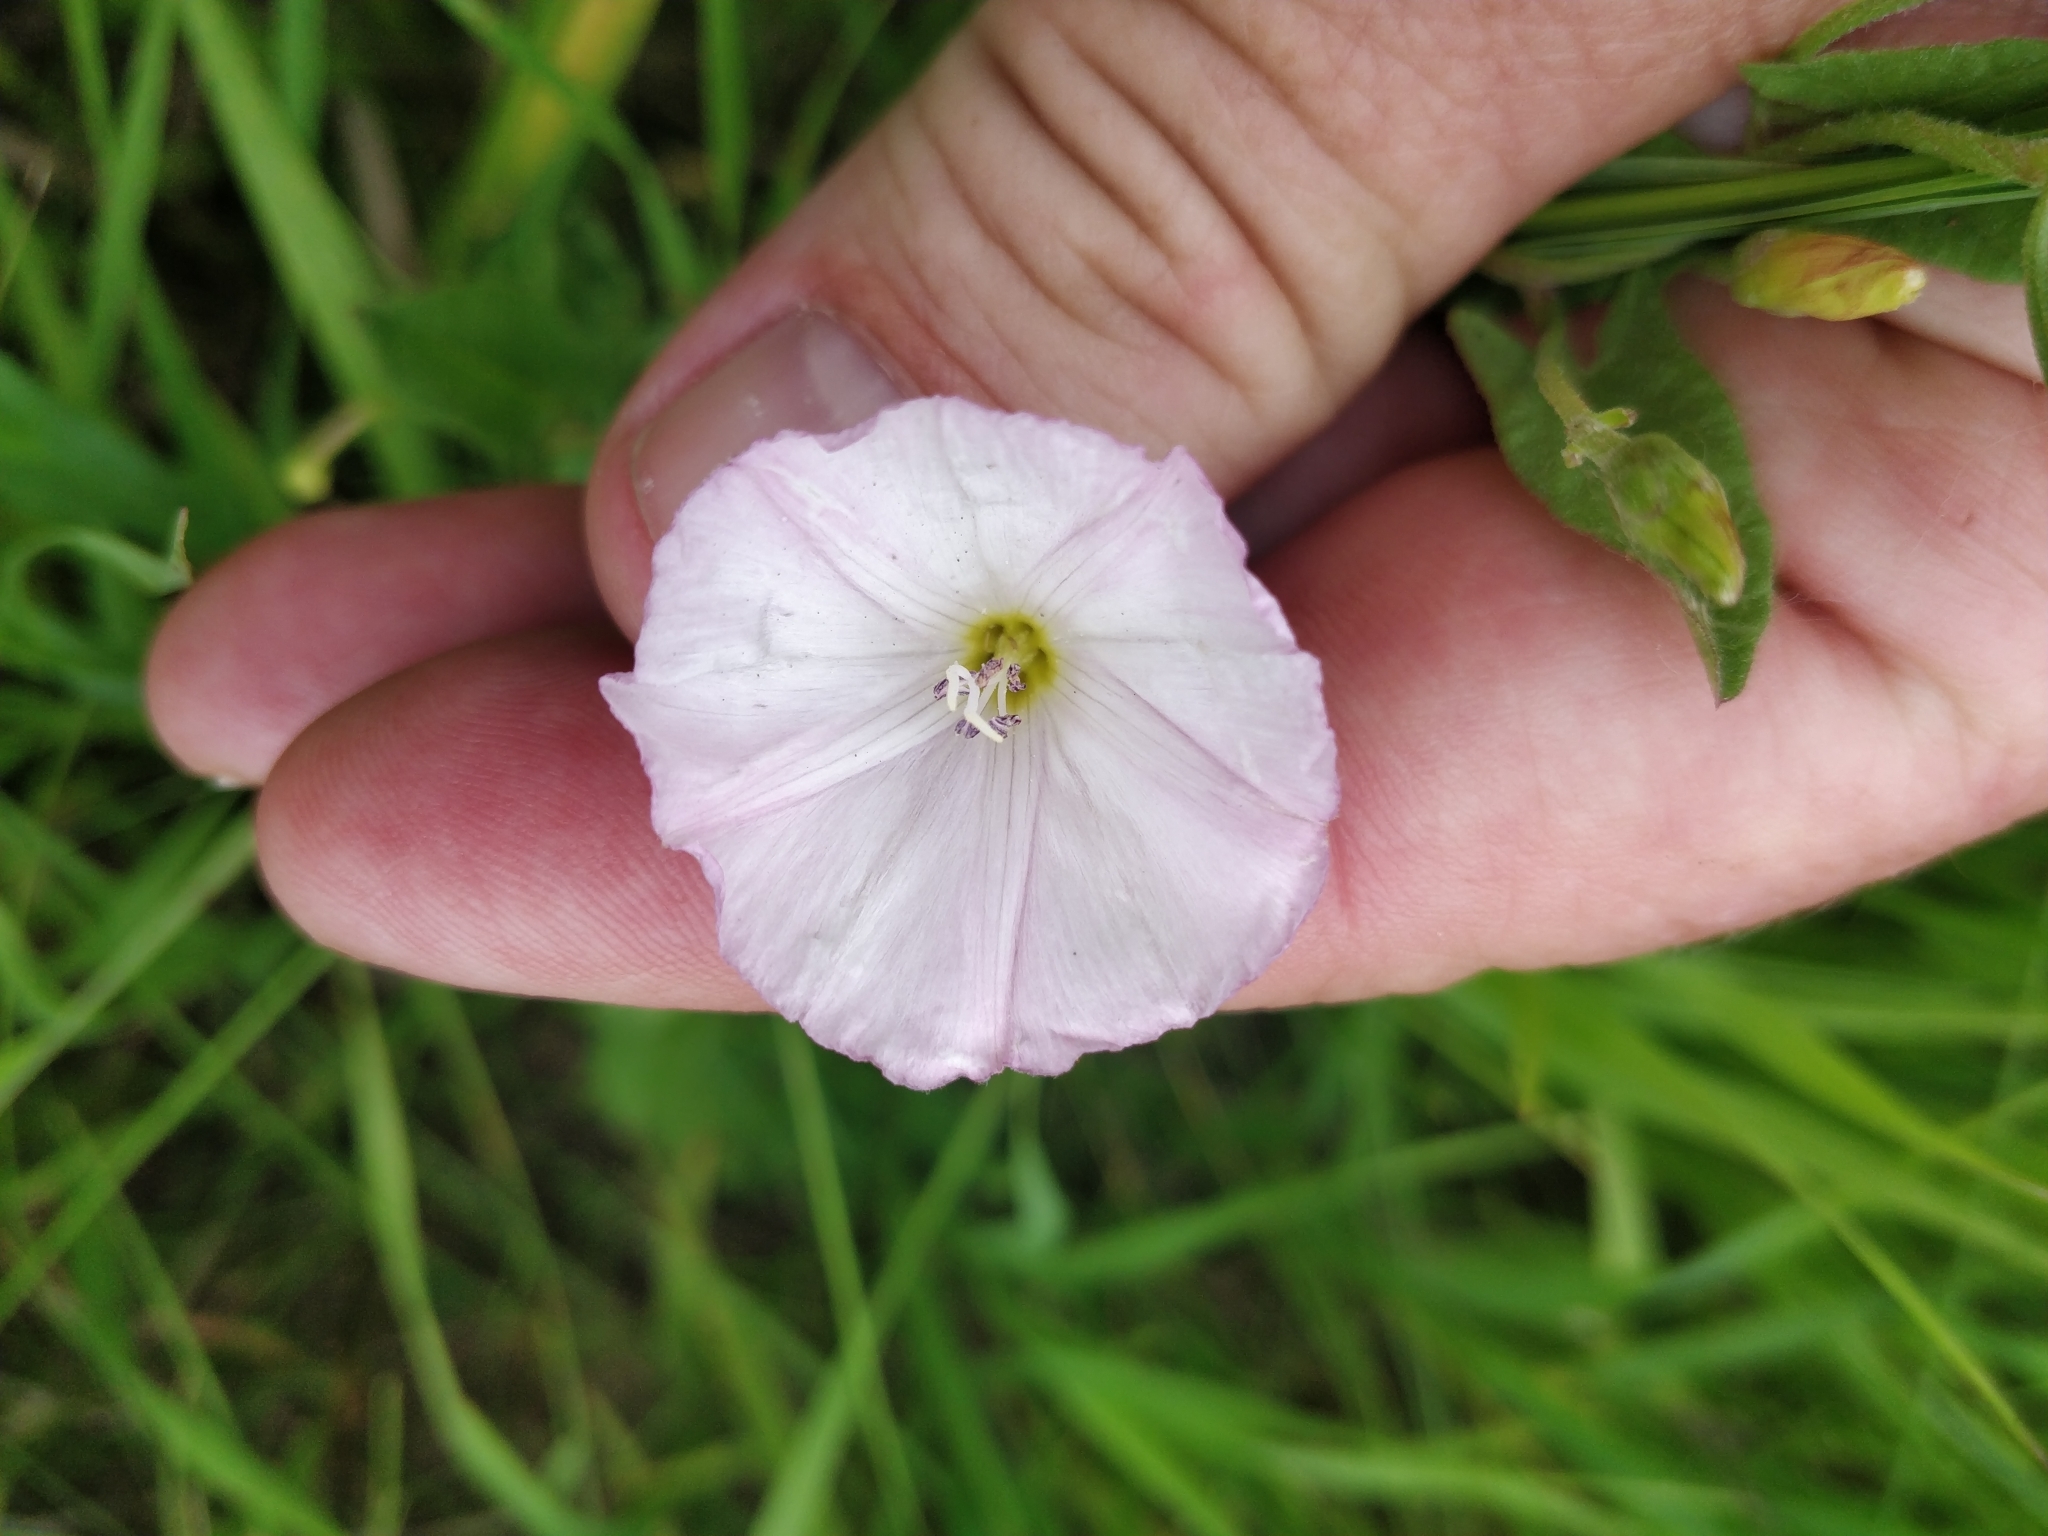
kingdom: Plantae
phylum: Tracheophyta
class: Magnoliopsida
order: Solanales
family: Convolvulaceae
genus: Convolvulus
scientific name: Convolvulus arvensis
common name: Field bindweed
